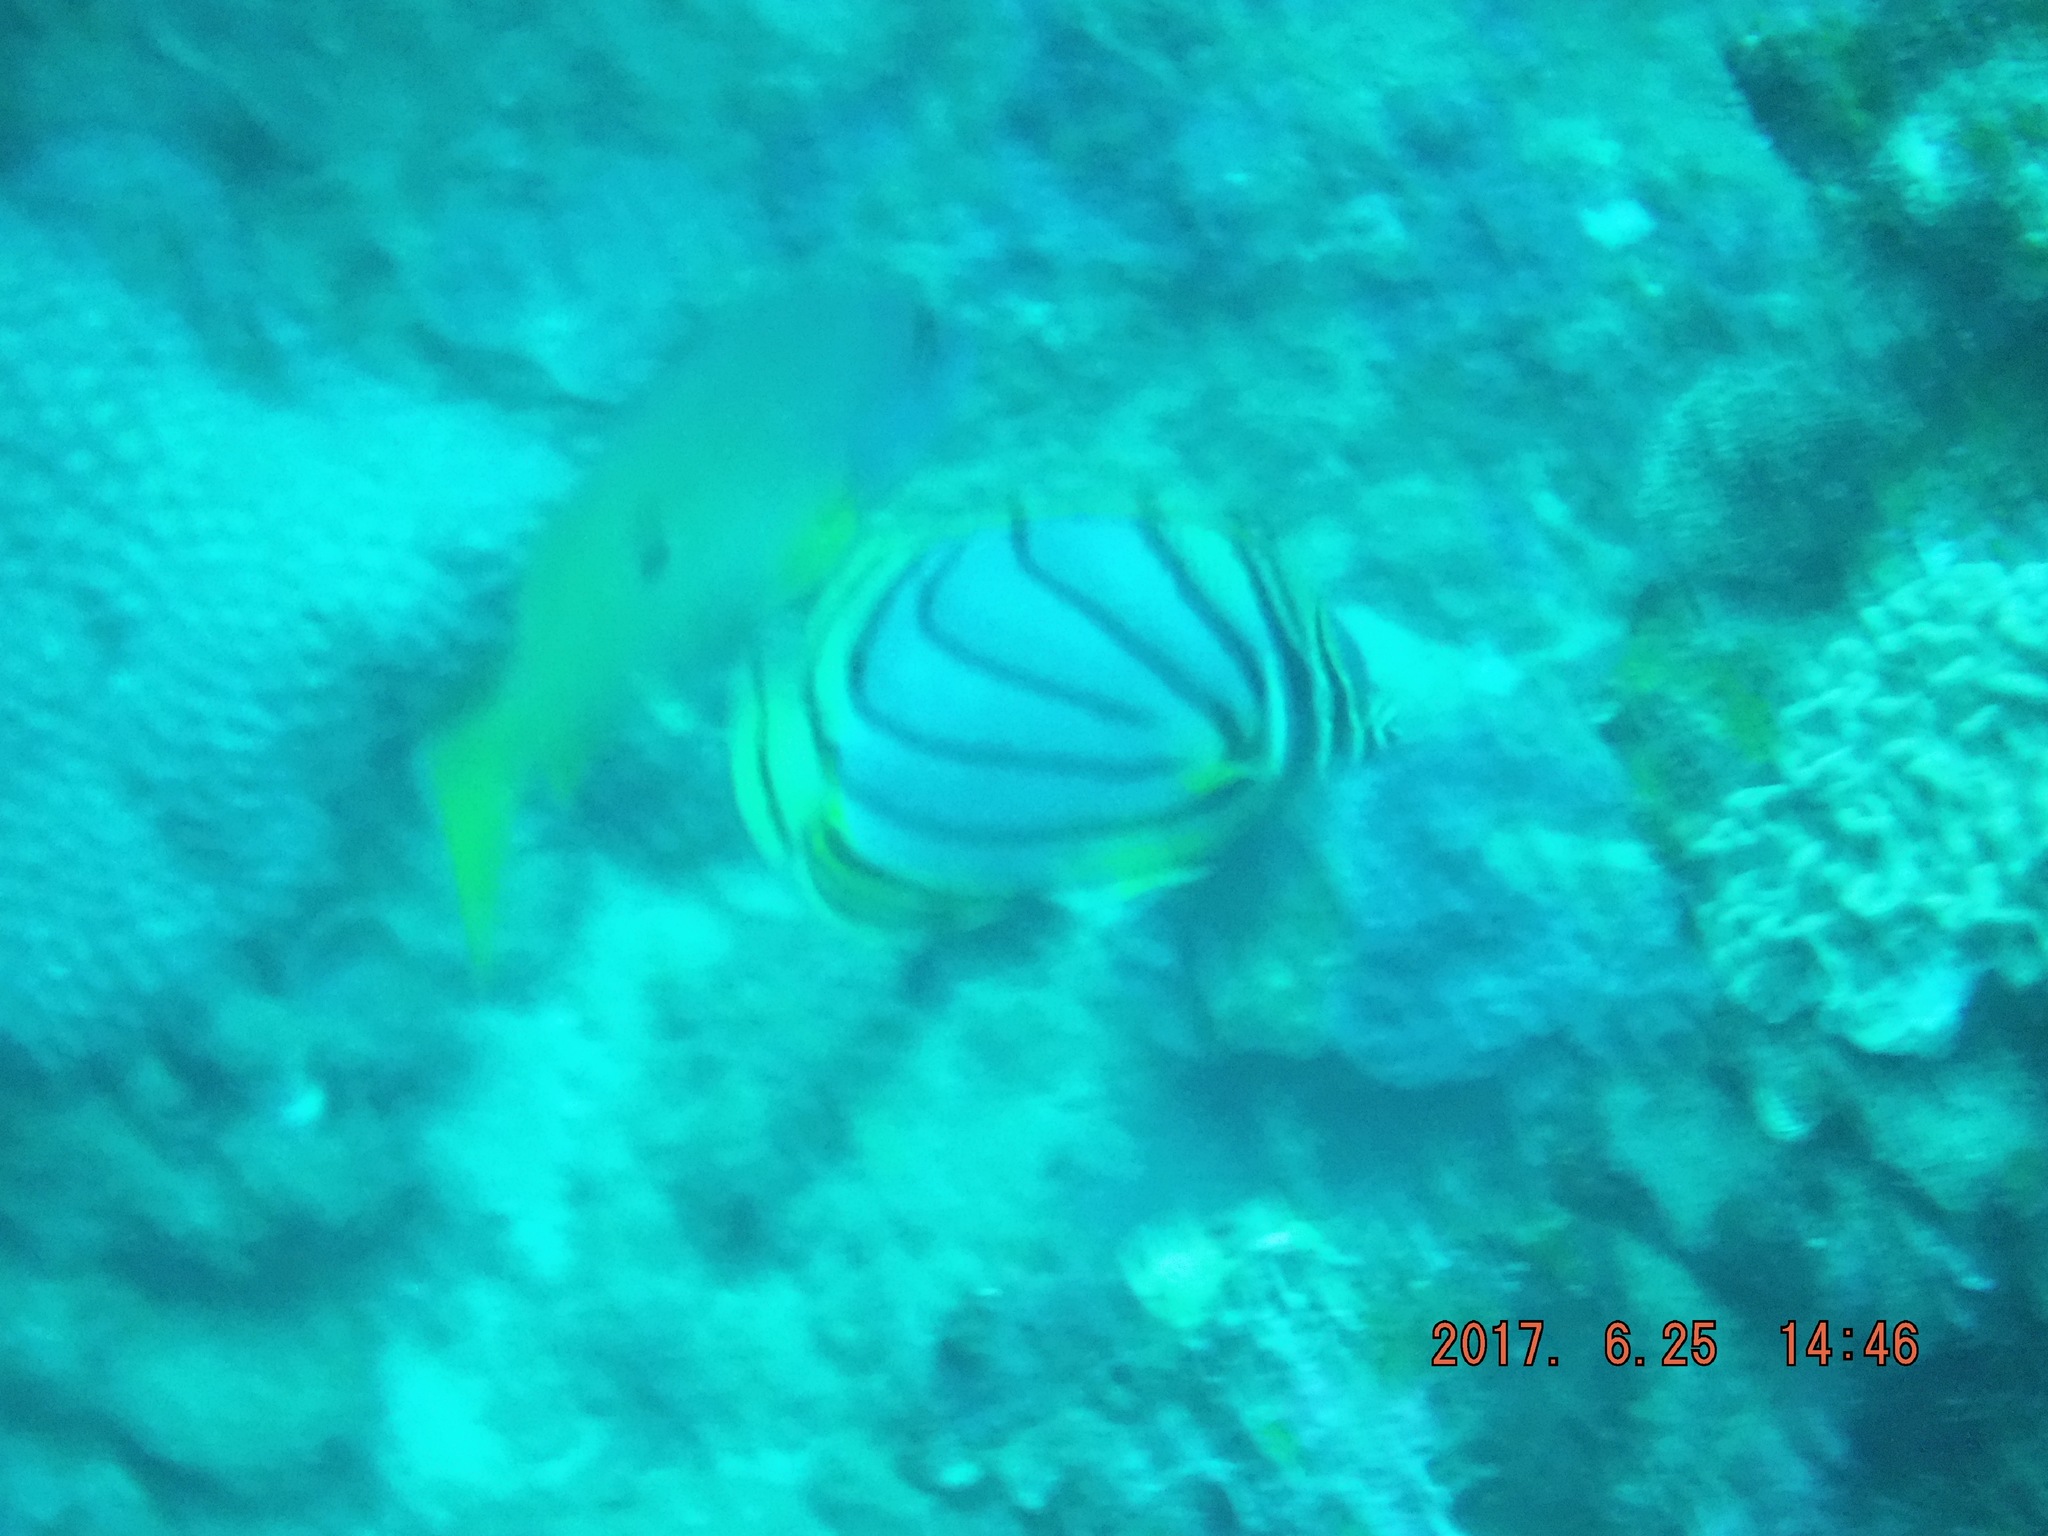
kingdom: Animalia
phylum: Chordata
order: Perciformes
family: Chaetodontidae
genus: Chaetodon
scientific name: Chaetodon meyeri
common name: Meyer's butterflyfish
